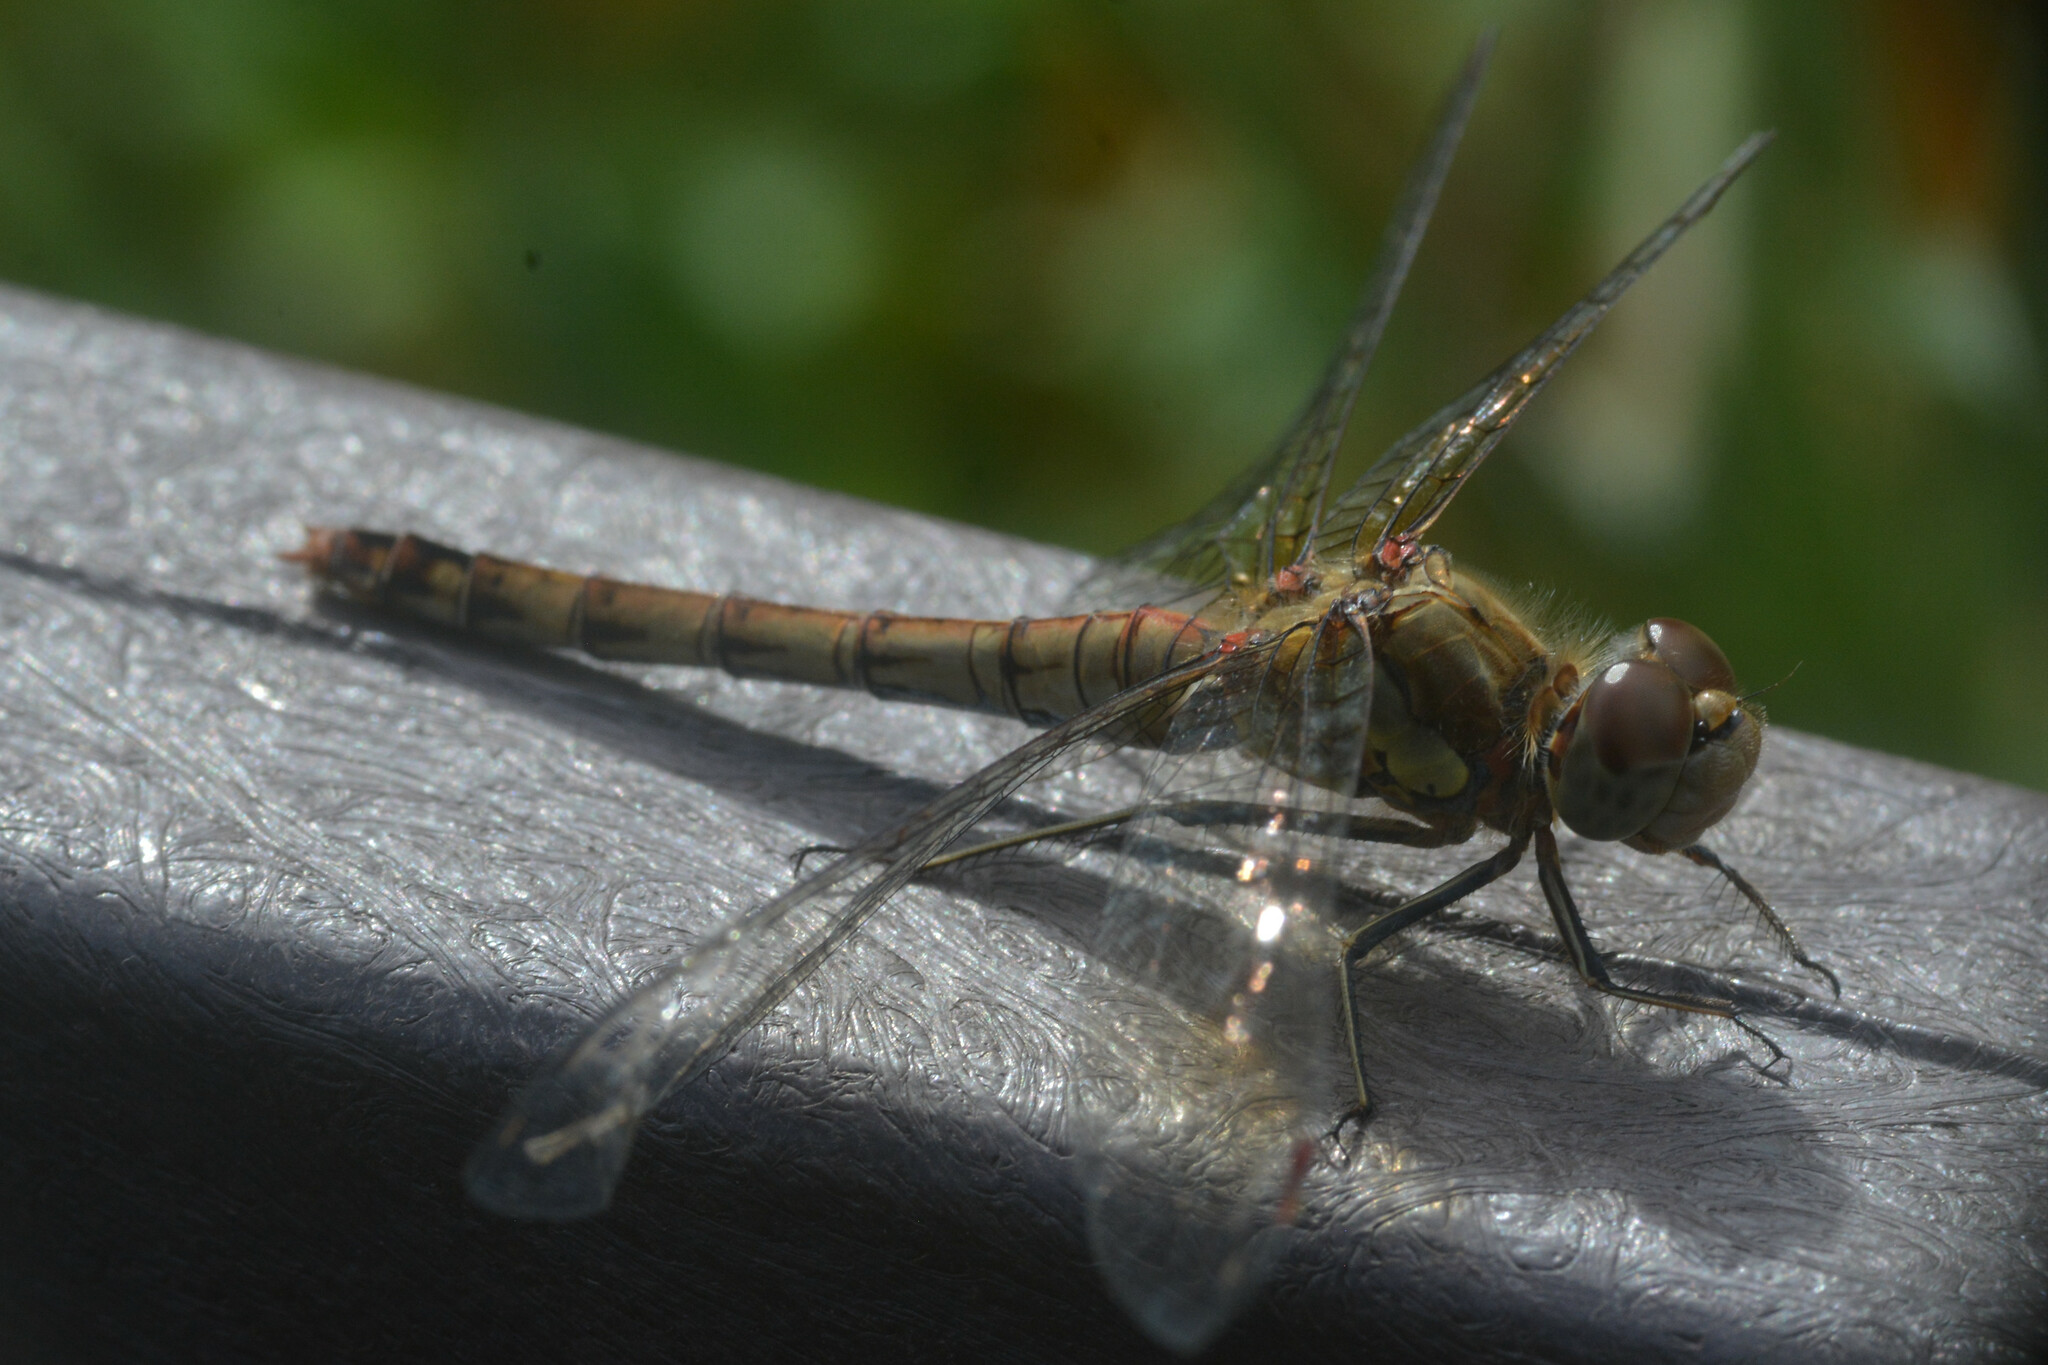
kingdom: Animalia
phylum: Arthropoda
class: Insecta
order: Odonata
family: Libellulidae
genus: Sympetrum
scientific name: Sympetrum striolatum
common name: Common darter
